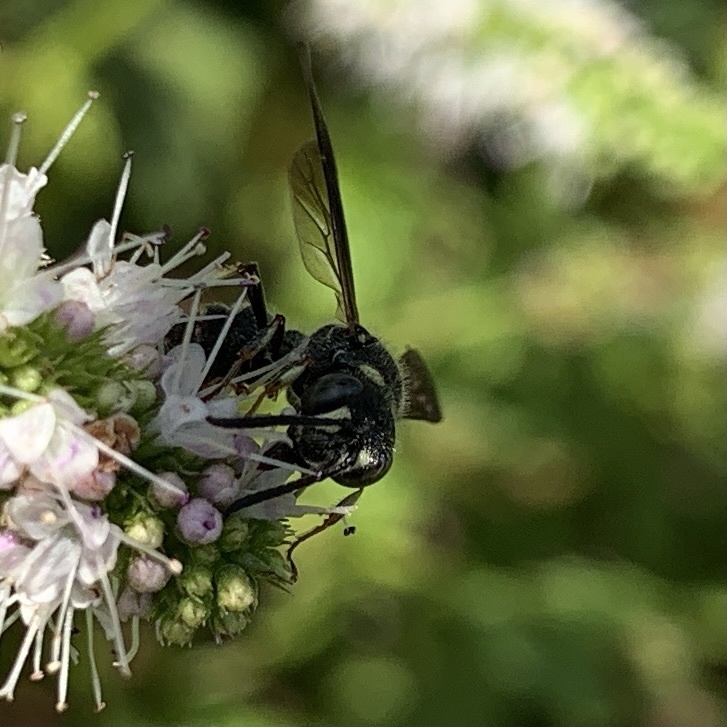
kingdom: Animalia
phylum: Arthropoda
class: Insecta
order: Hymenoptera
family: Crabronidae
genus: Cerceris
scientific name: Cerceris fumipennis
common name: Smokey-winged beetle bandit wasp
